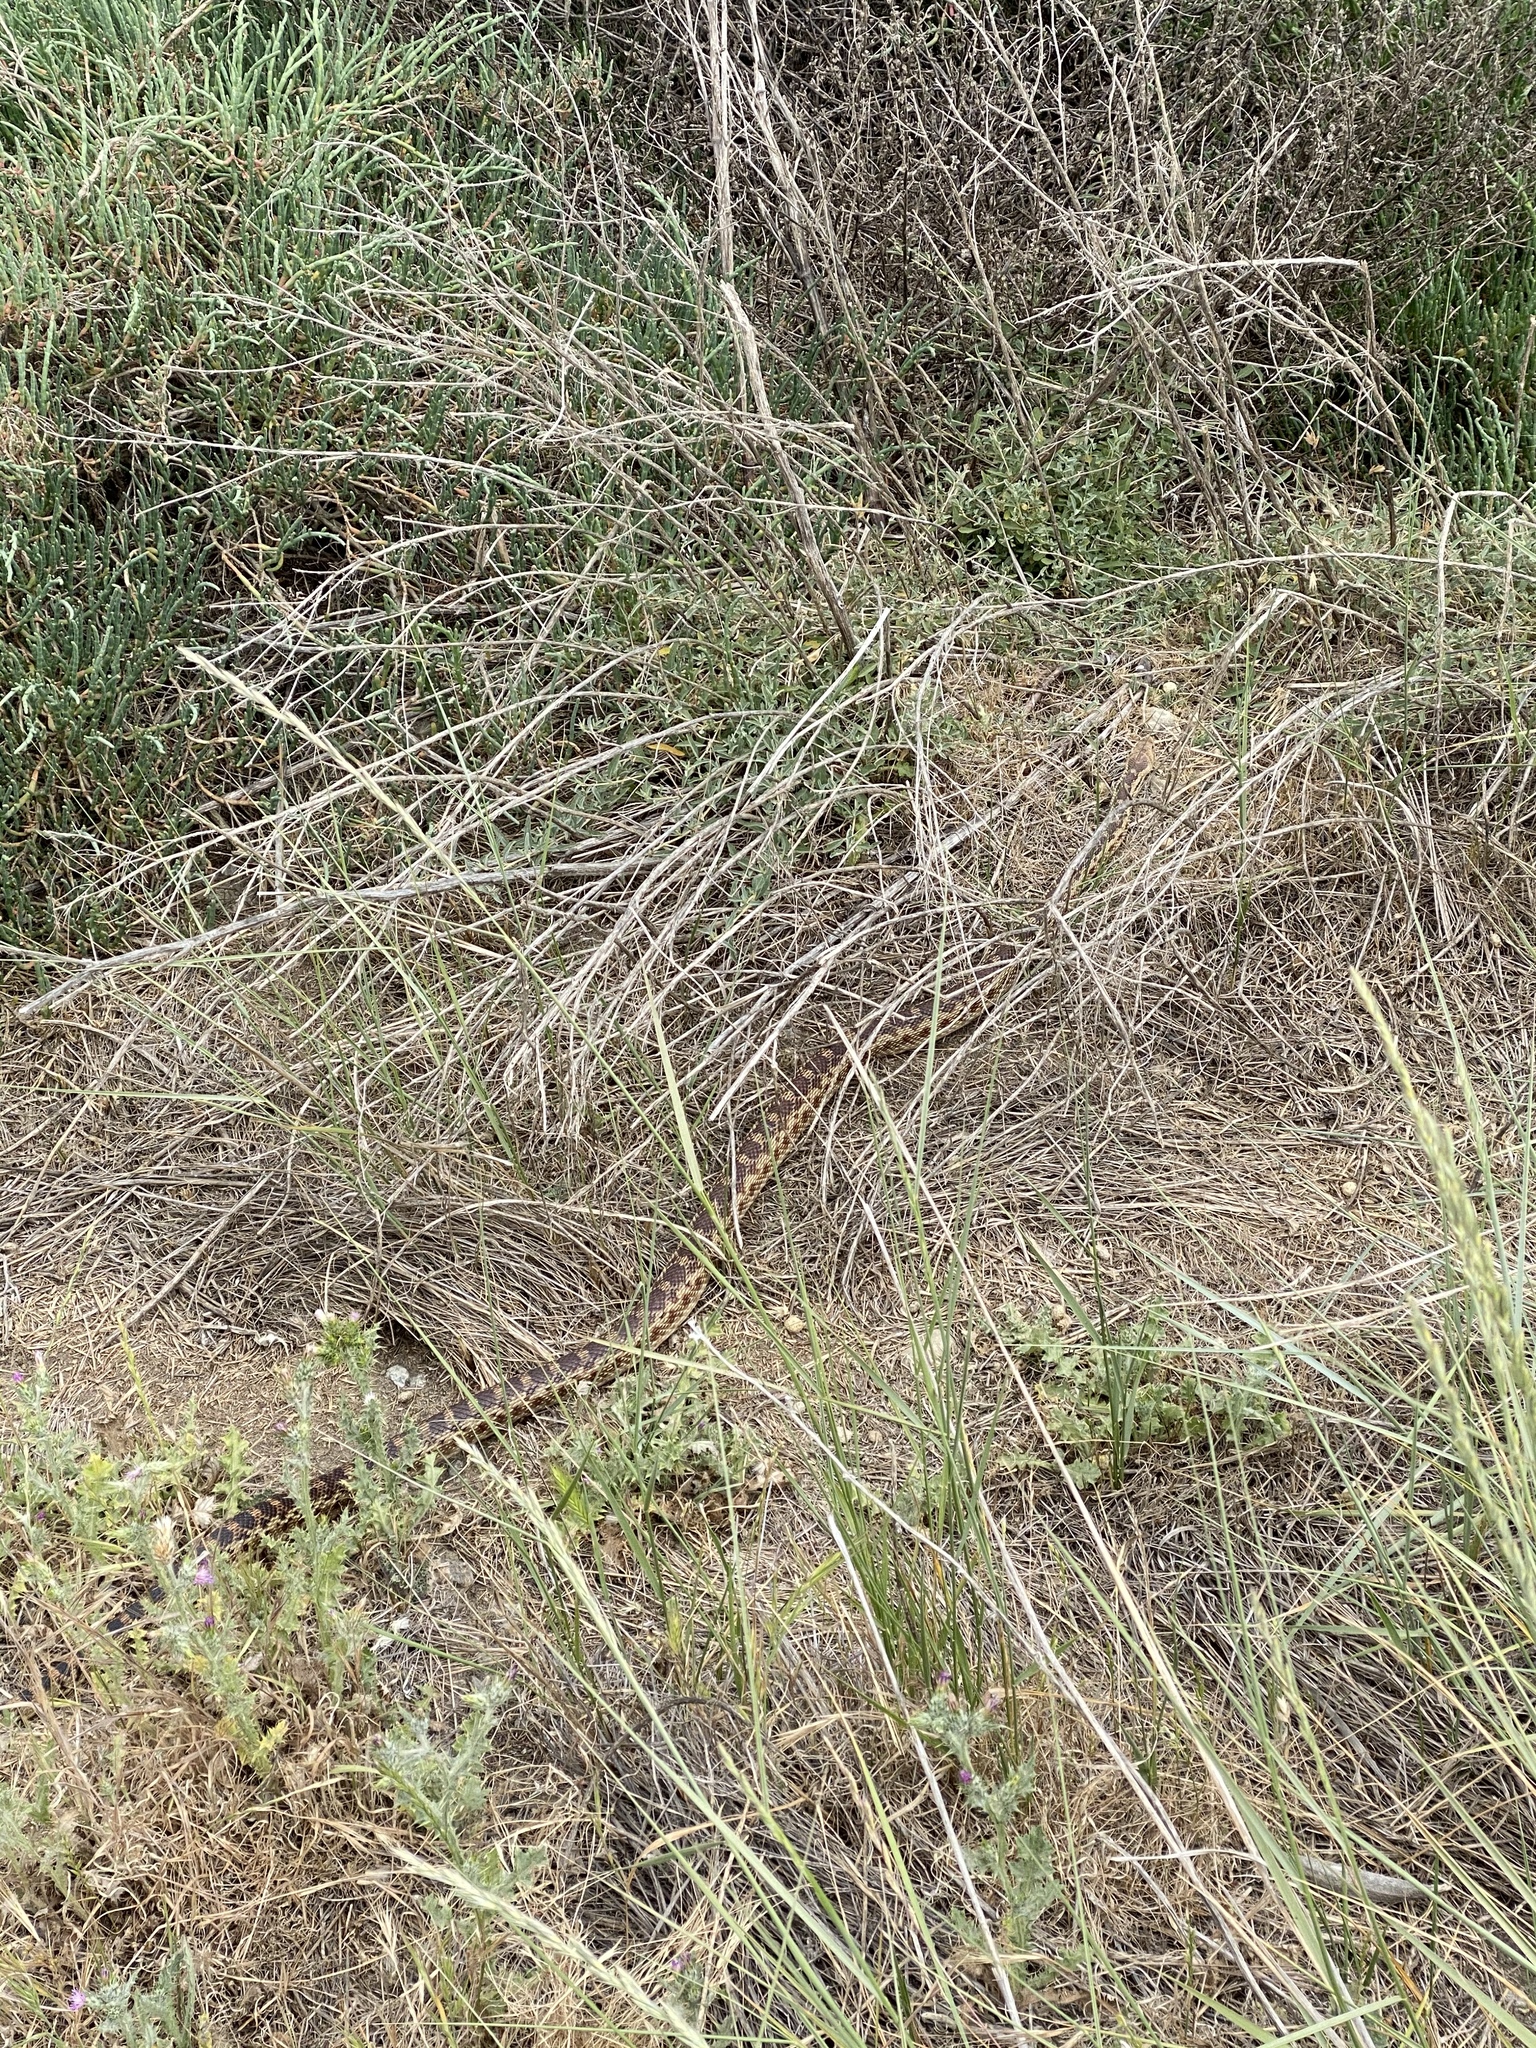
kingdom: Animalia
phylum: Chordata
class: Squamata
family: Colubridae
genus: Pituophis
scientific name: Pituophis catenifer
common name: Gopher snake
